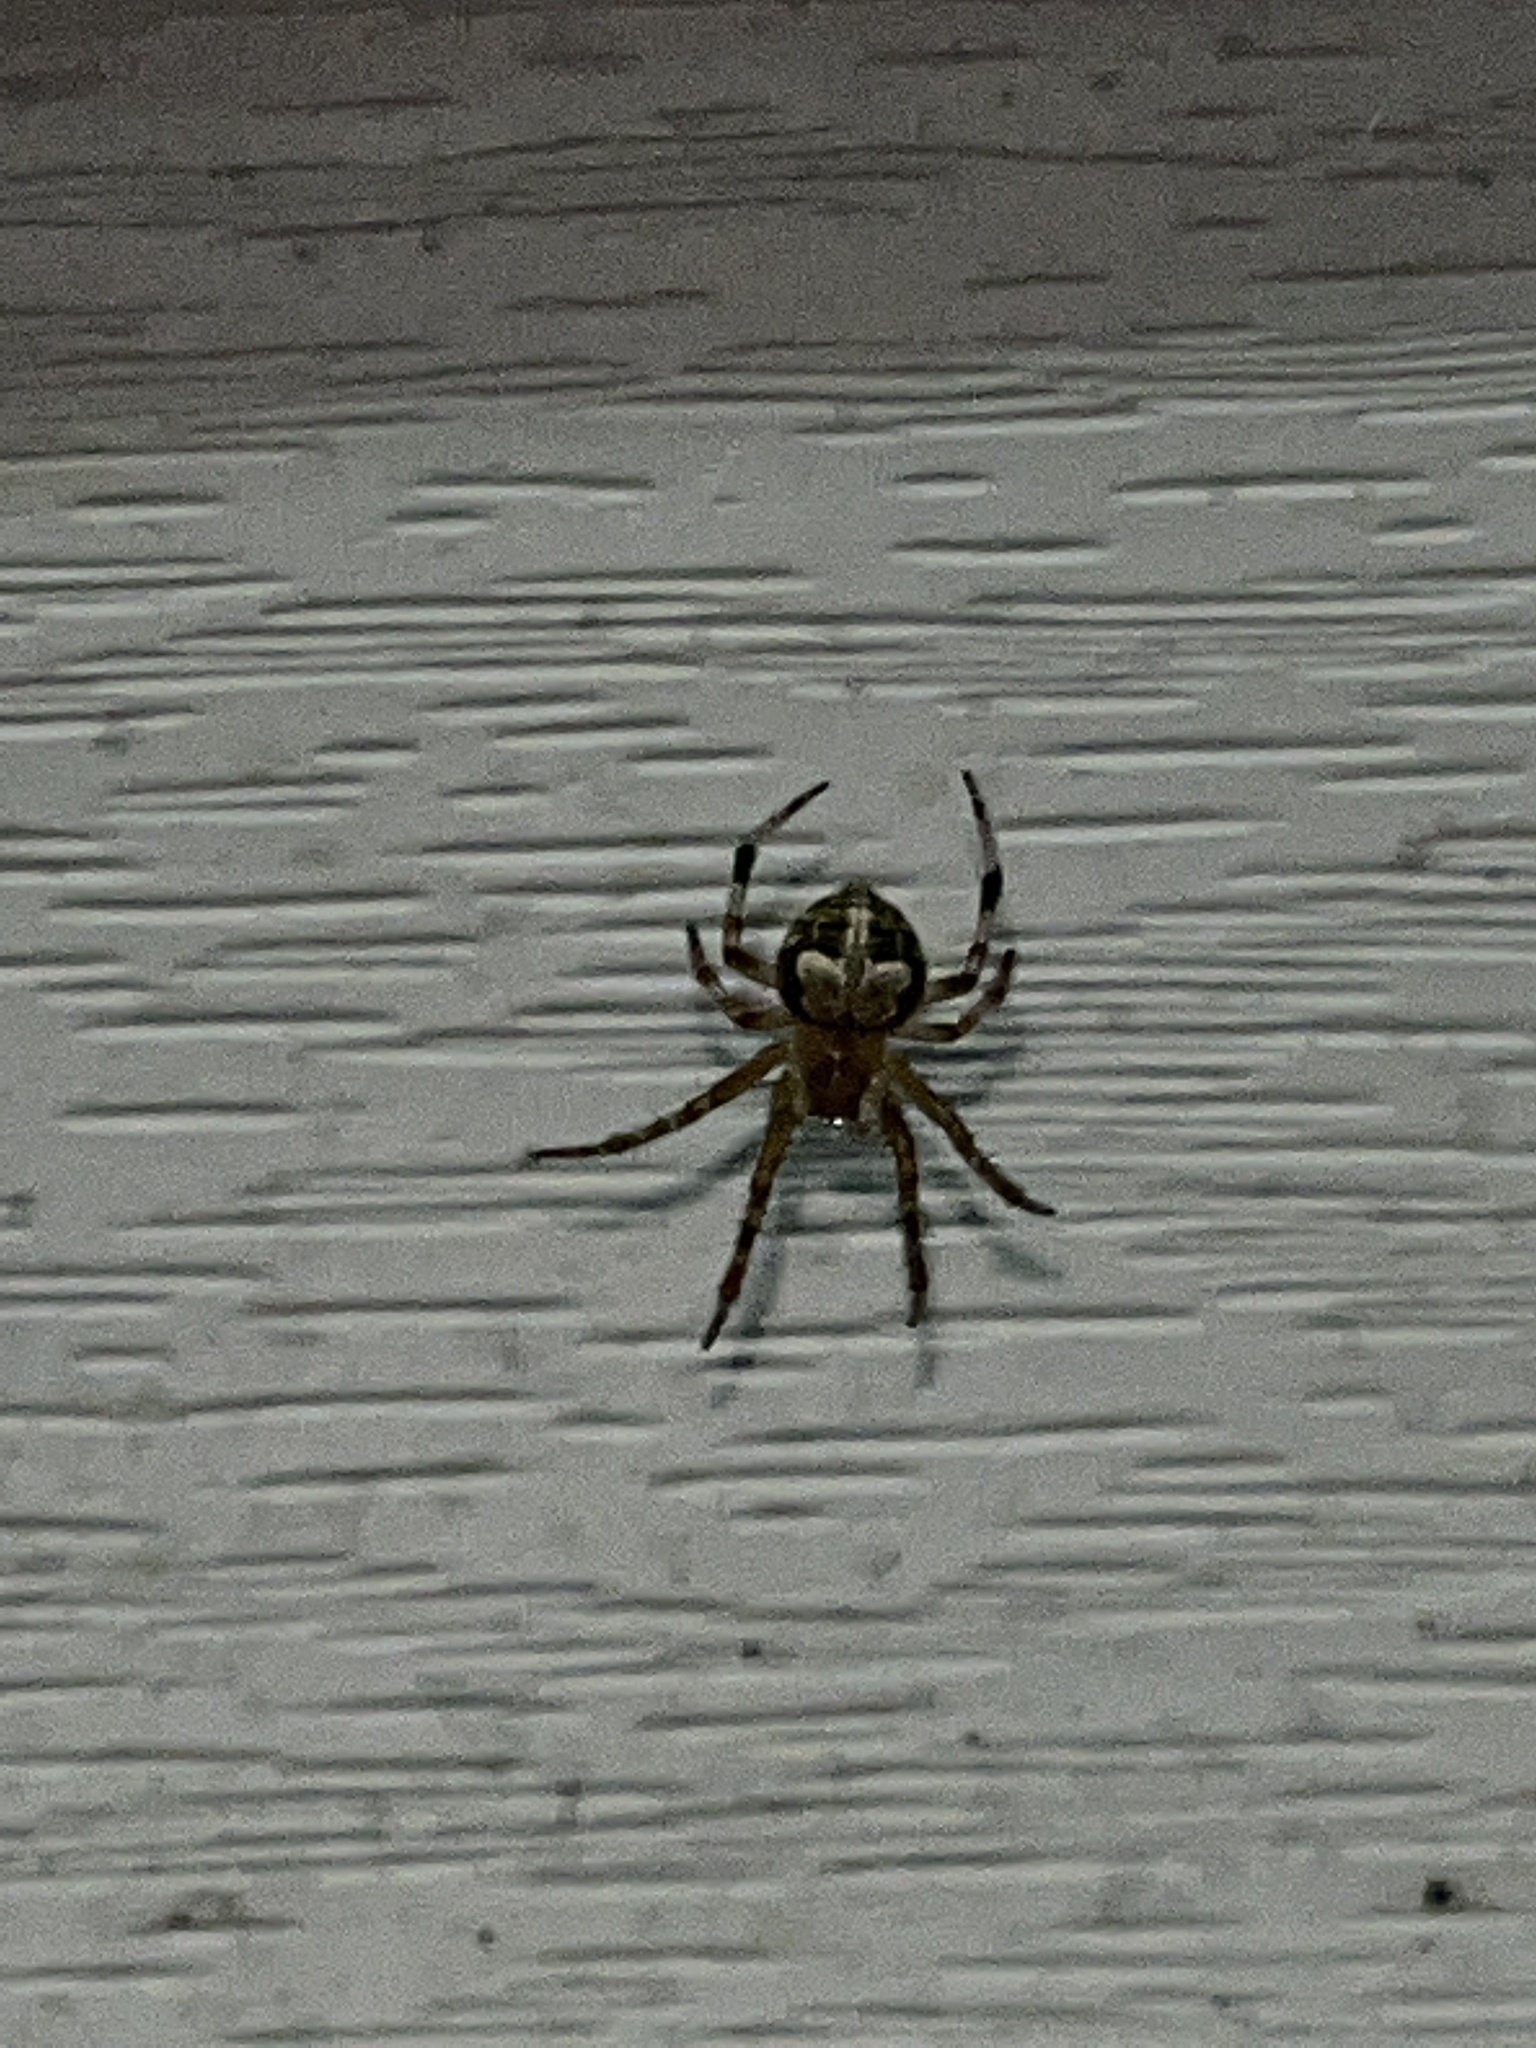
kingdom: Animalia
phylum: Arthropoda
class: Arachnida
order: Araneae
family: Araneidae
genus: Araneus
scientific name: Araneus pegnia
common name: Orb weavers
